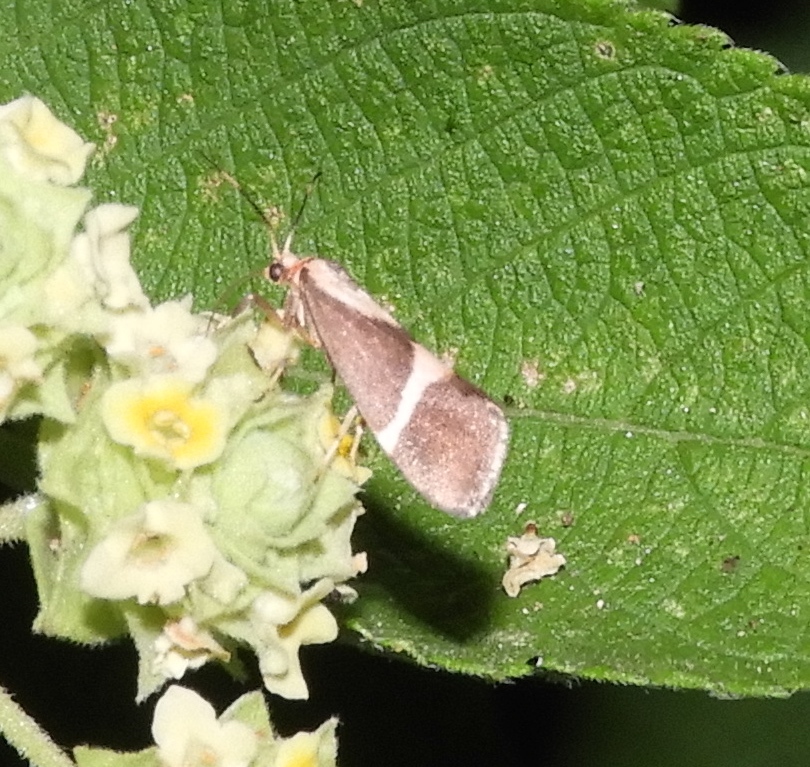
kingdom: Animalia
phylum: Arthropoda
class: Insecta
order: Lepidoptera
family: Erebidae
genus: Cisthene
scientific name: Cisthene
